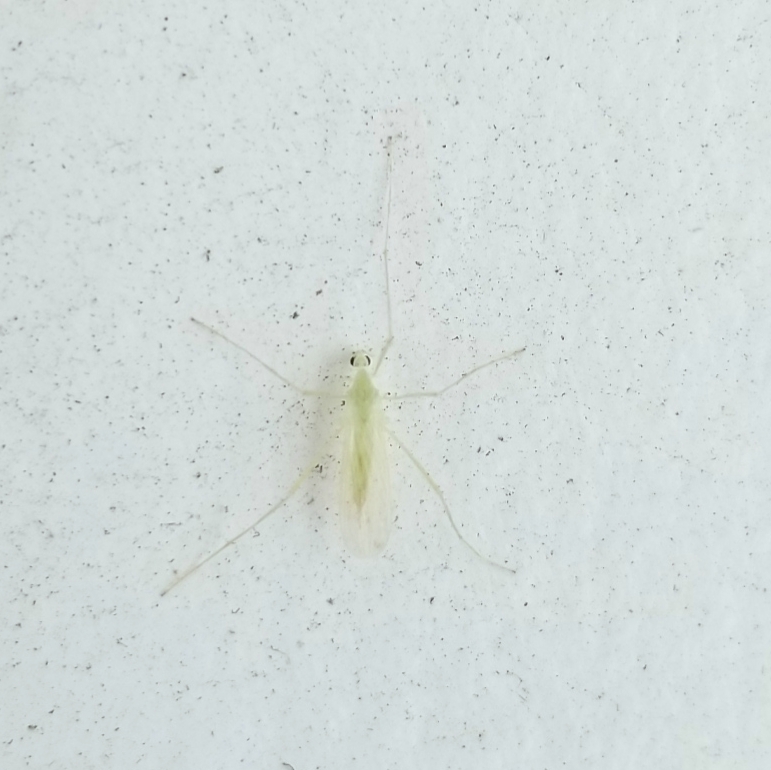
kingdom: Animalia
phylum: Arthropoda
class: Insecta
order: Diptera
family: Limoniidae
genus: Erioptera
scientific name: Erioptera
